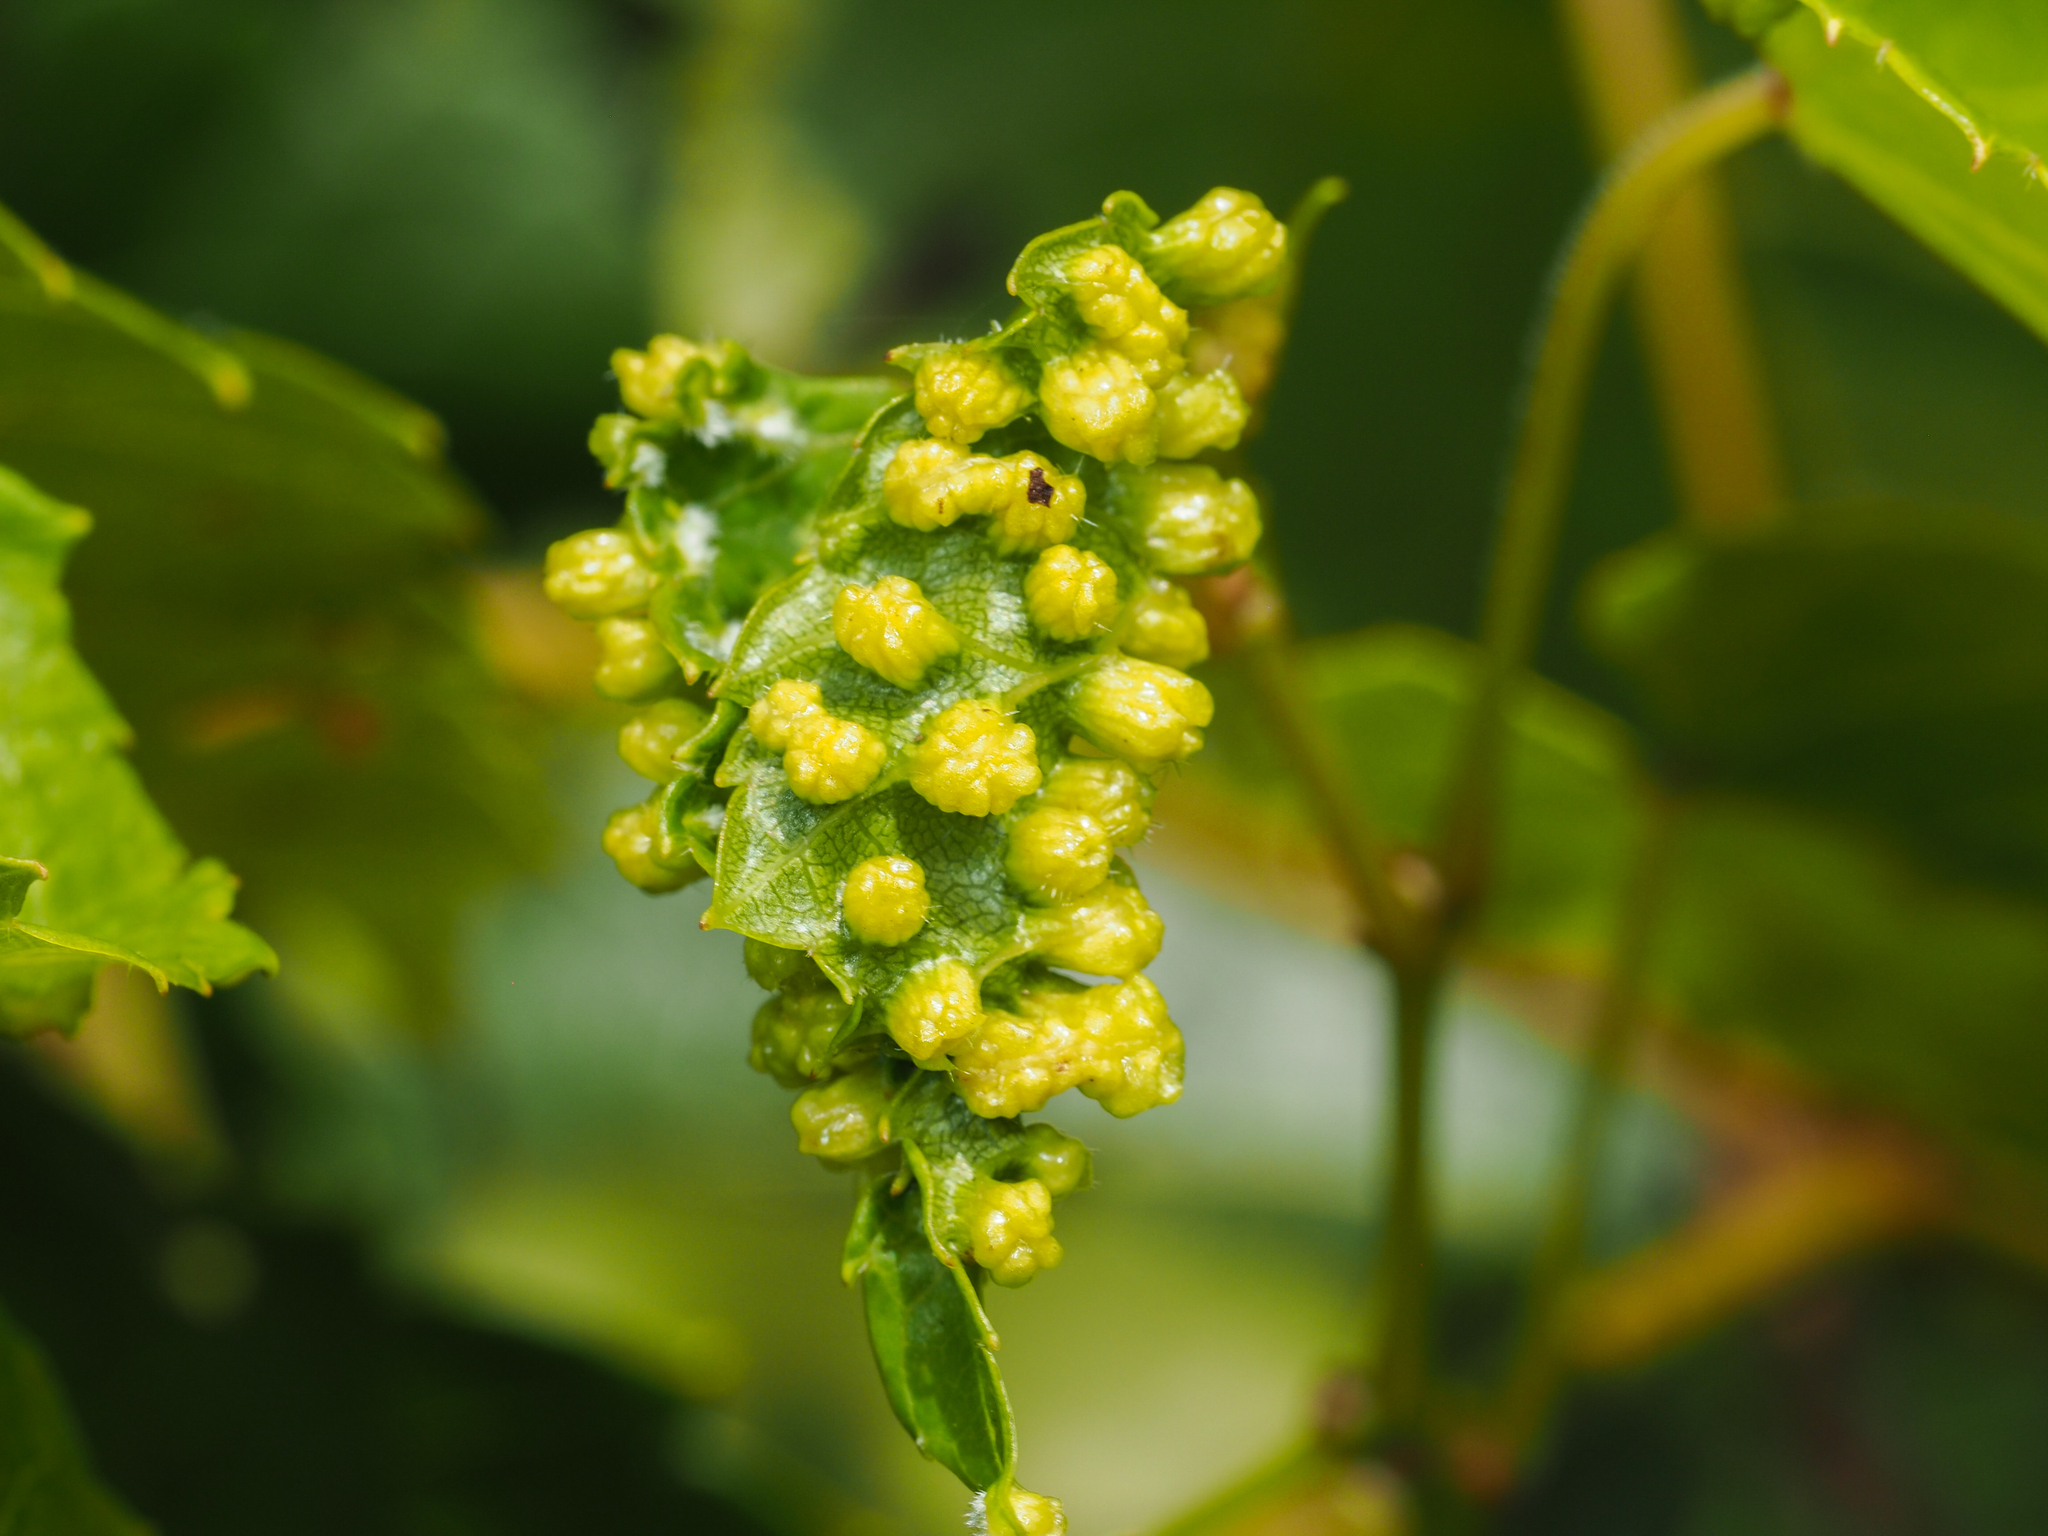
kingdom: Animalia
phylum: Arthropoda
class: Insecta
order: Hemiptera
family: Phylloxeridae
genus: Daktulosphaira
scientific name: Daktulosphaira vitifoliae
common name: Grape phylloxera
